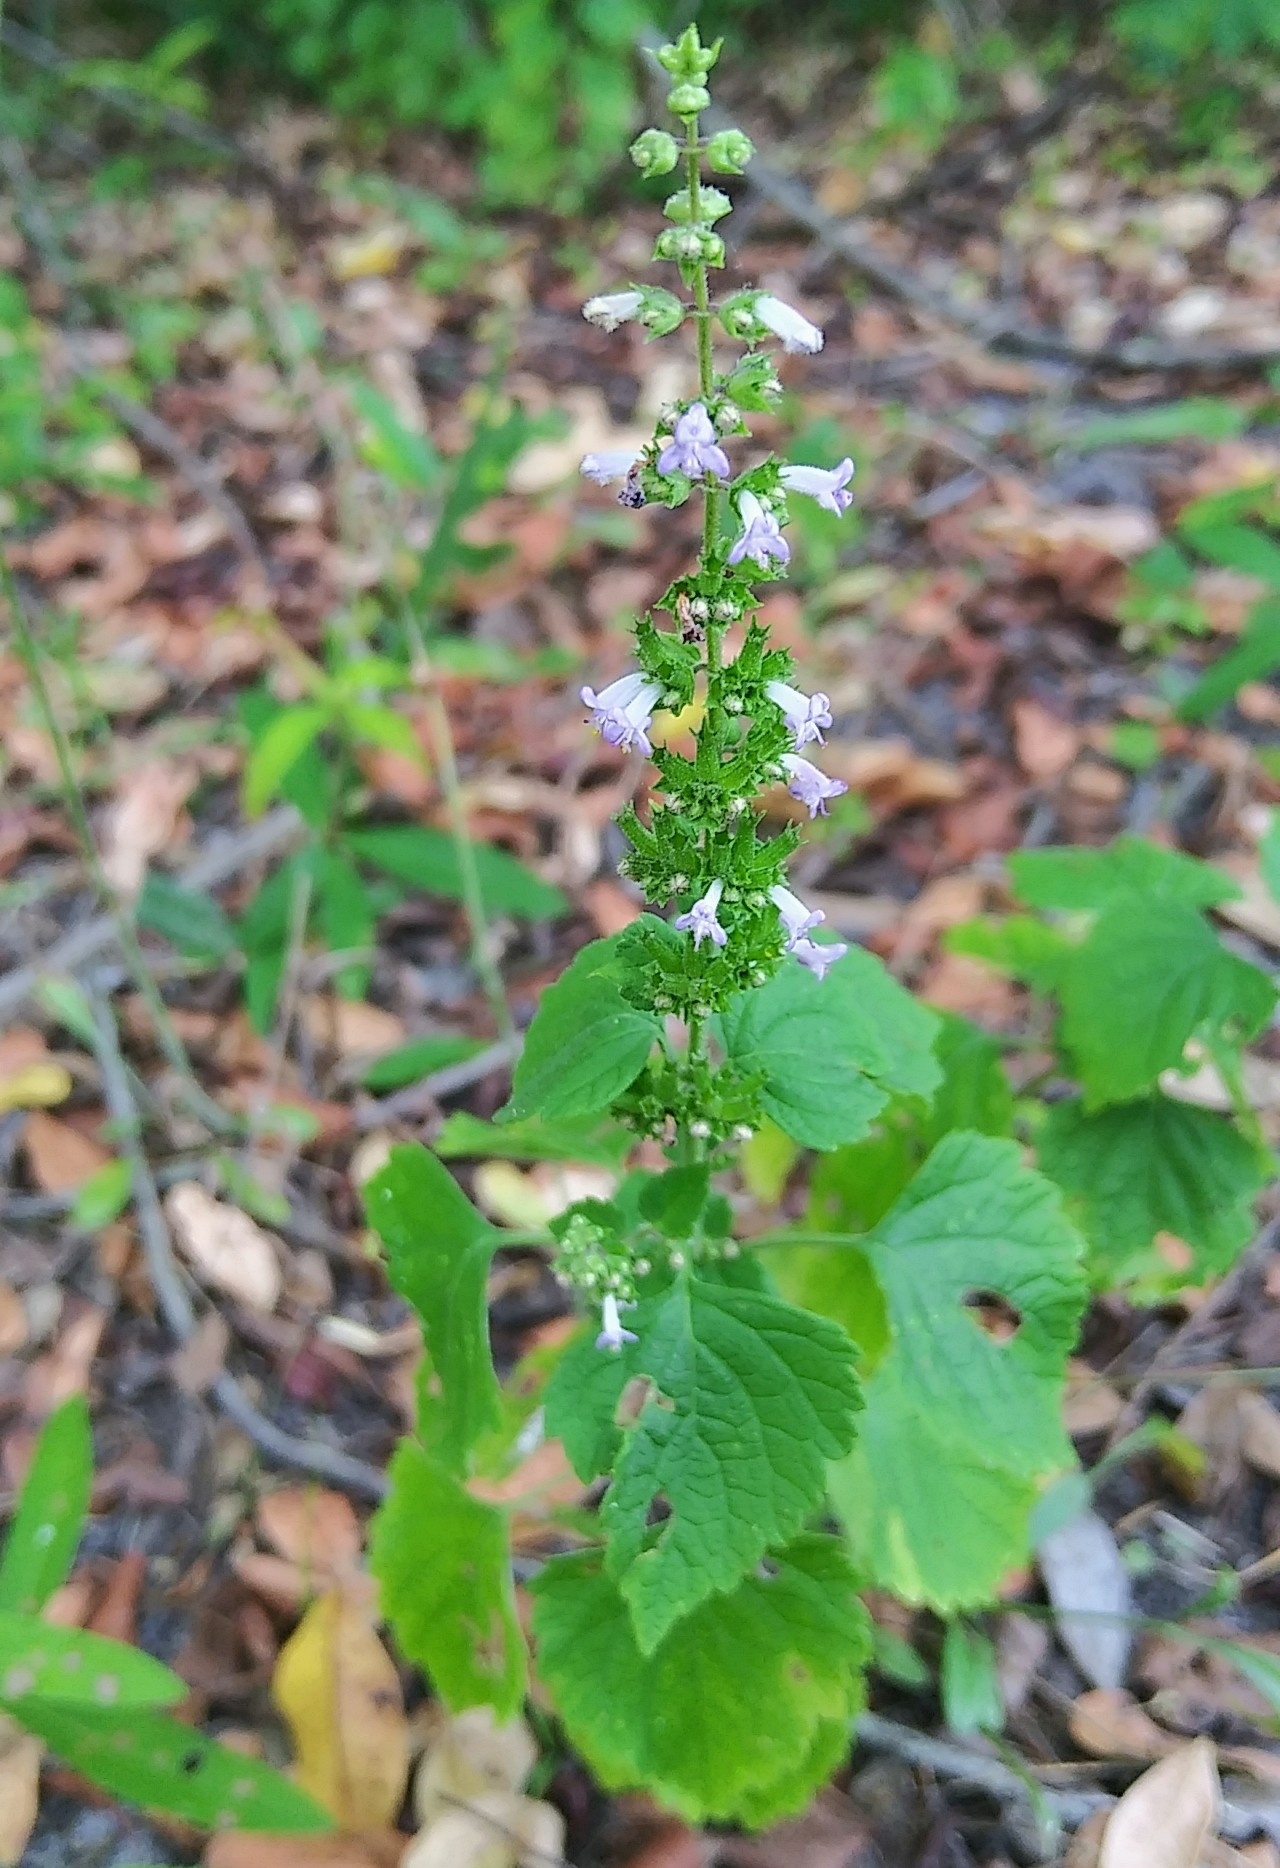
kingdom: Plantae
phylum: Tracheophyta
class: Magnoliopsida
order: Lamiales
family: Lamiaceae
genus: Cantinoa
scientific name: Cantinoa mutabilis
